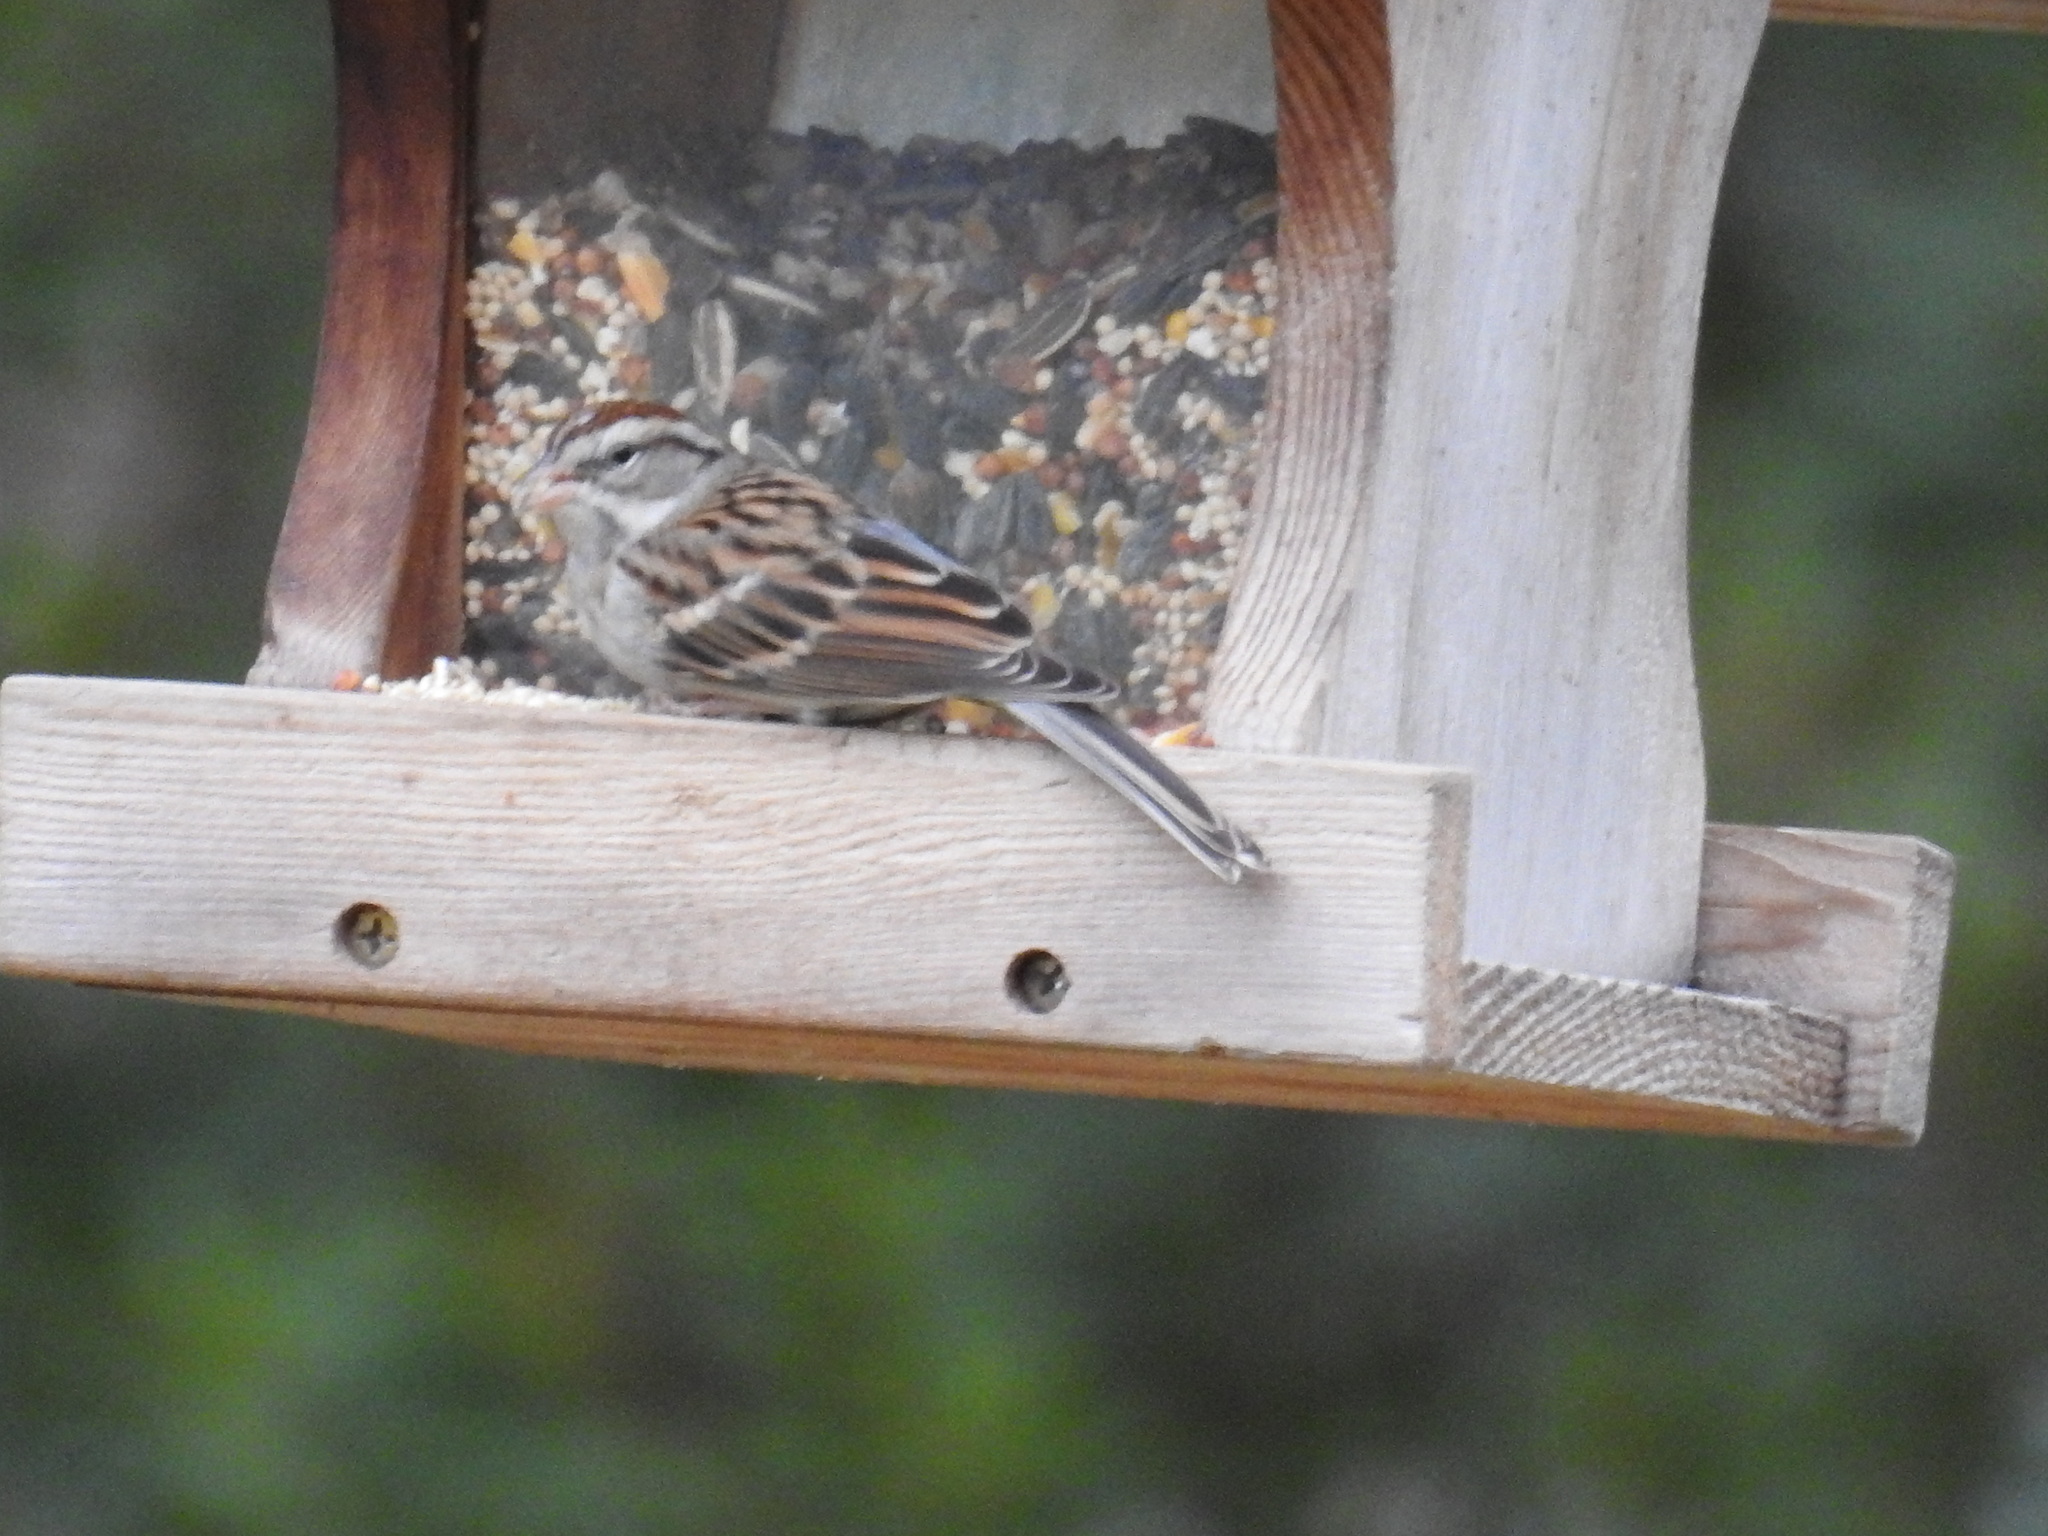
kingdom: Animalia
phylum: Chordata
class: Aves
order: Passeriformes
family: Passerellidae
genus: Spizella
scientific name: Spizella passerina
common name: Chipping sparrow
